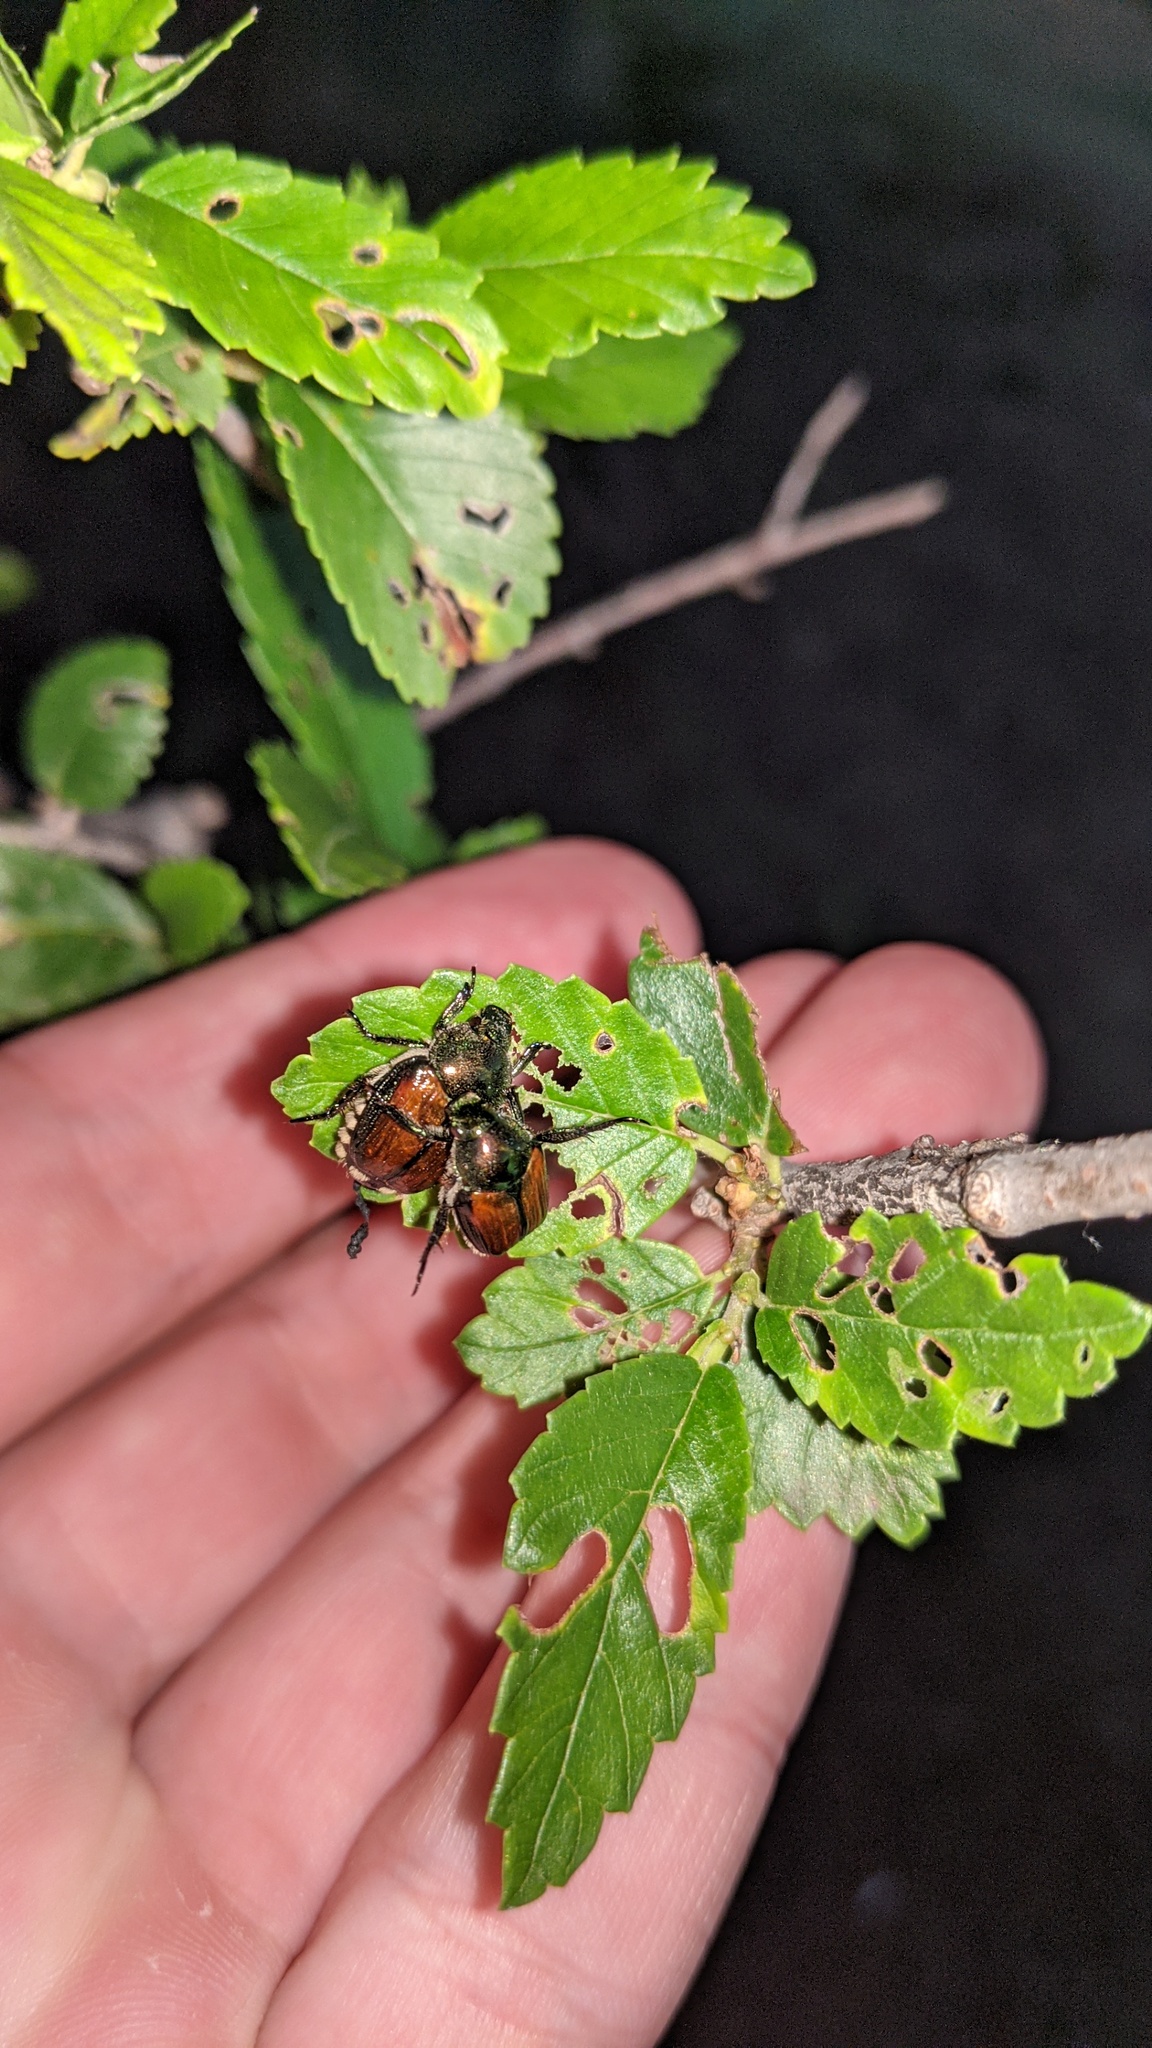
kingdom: Animalia
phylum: Arthropoda
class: Insecta
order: Coleoptera
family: Scarabaeidae
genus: Popillia
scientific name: Popillia japonica
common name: Japanese beetle
